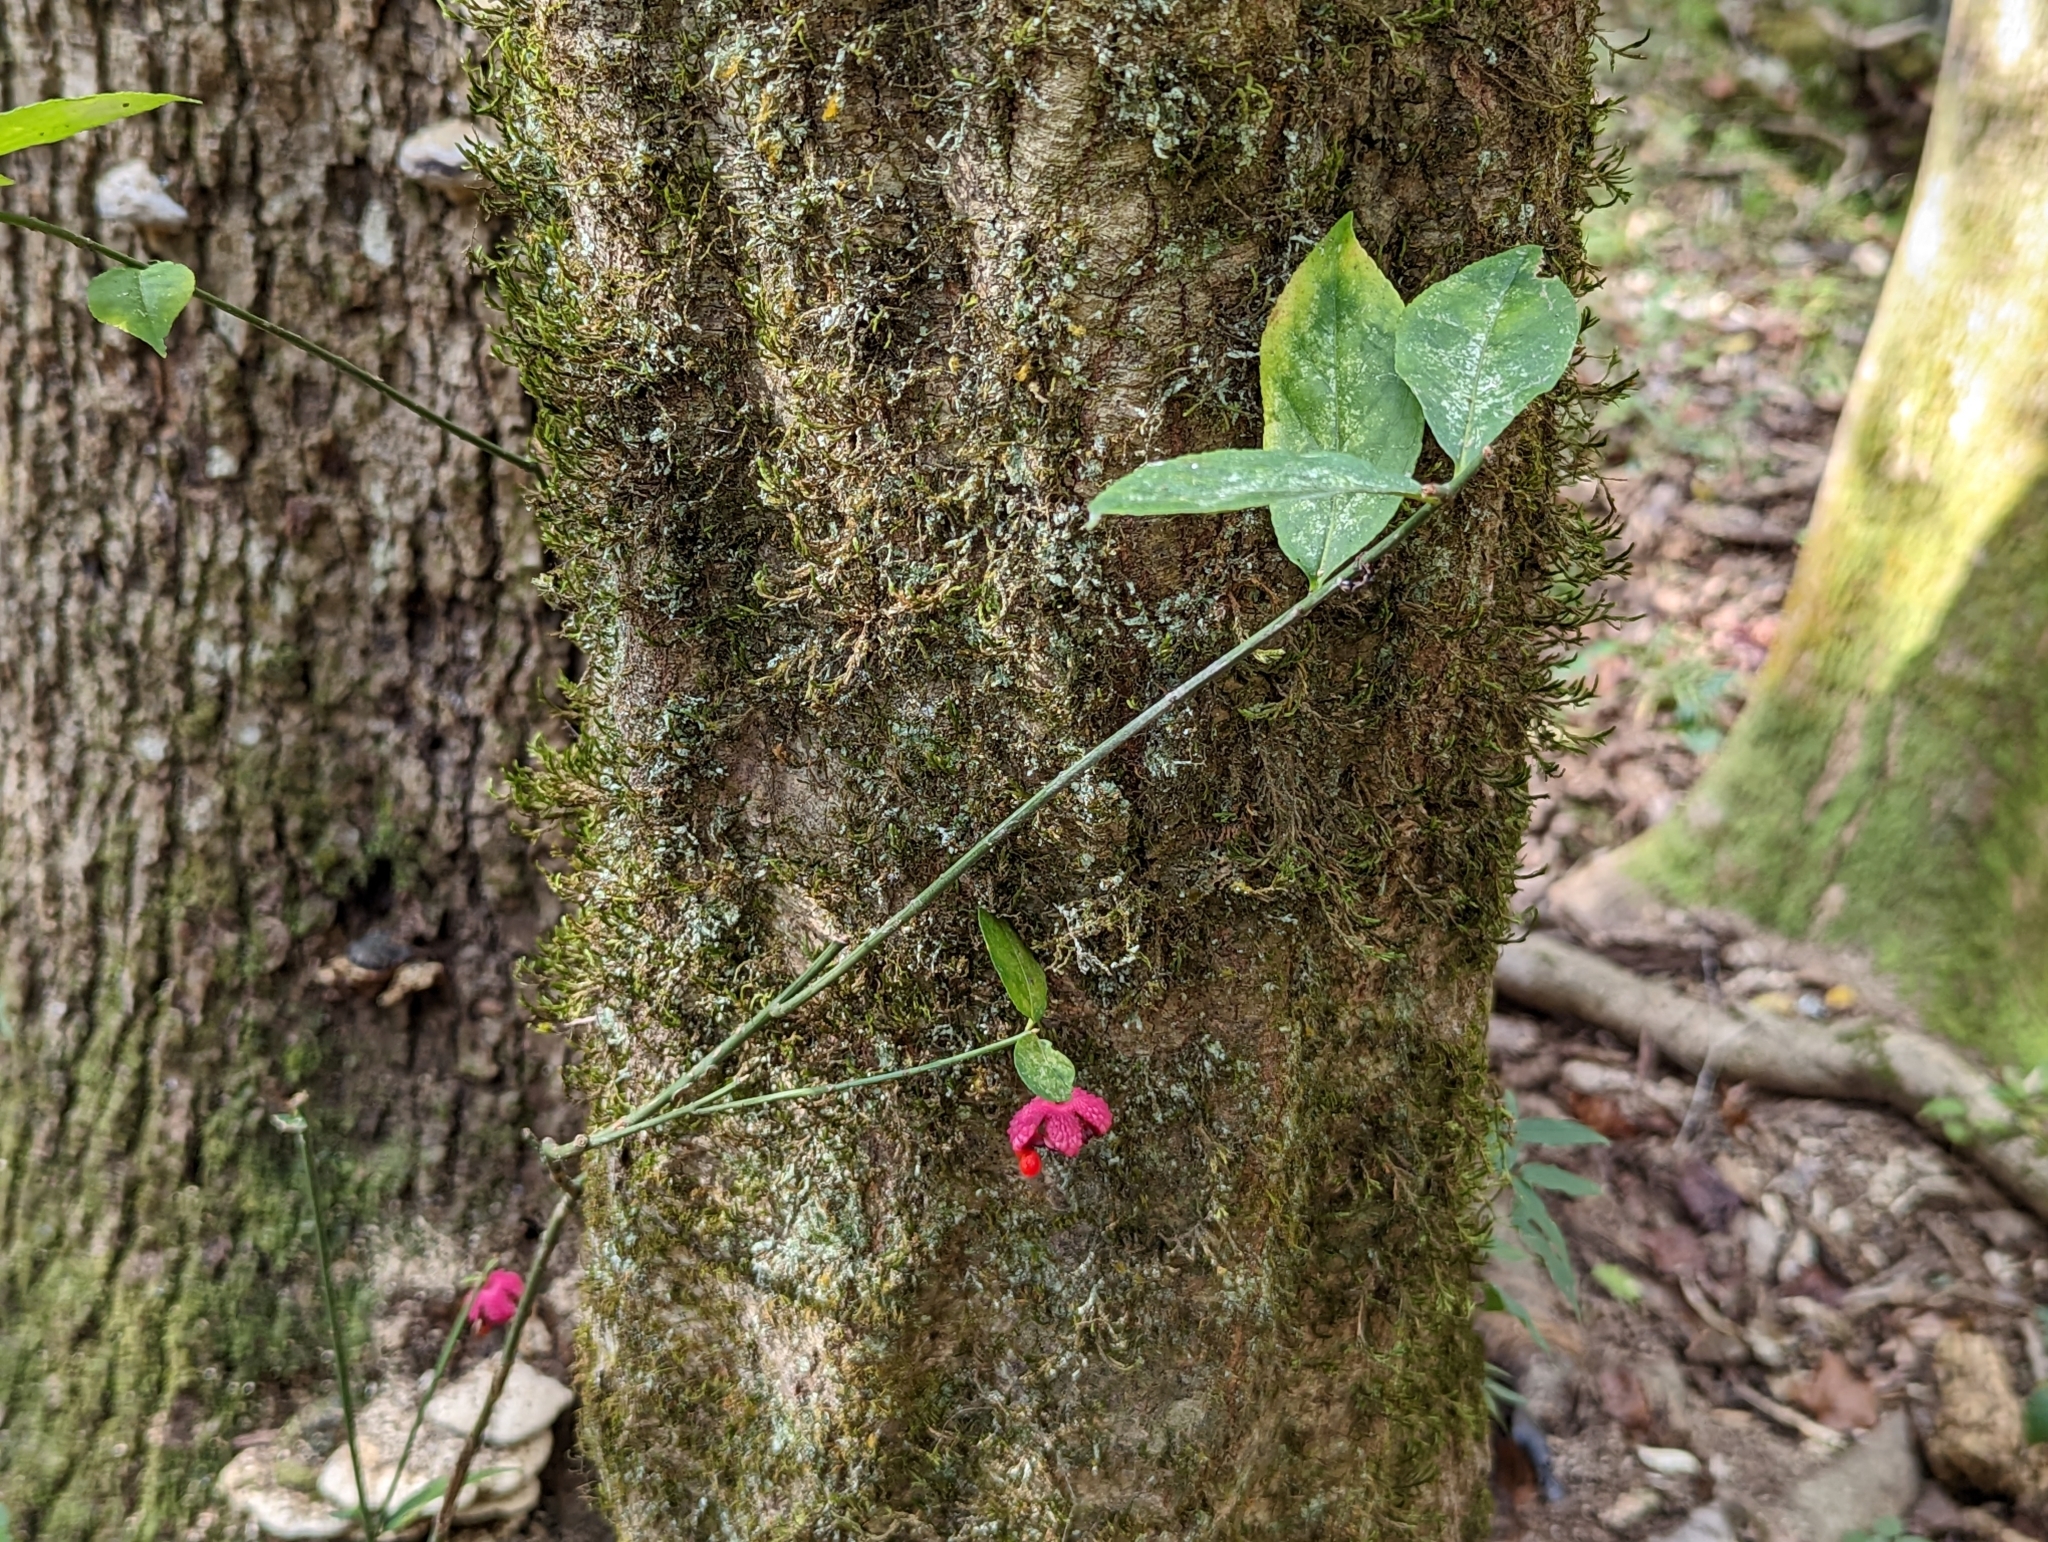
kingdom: Plantae
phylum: Tracheophyta
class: Magnoliopsida
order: Celastrales
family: Celastraceae
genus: Euonymus
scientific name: Euonymus americanus
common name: Bursting-heart
